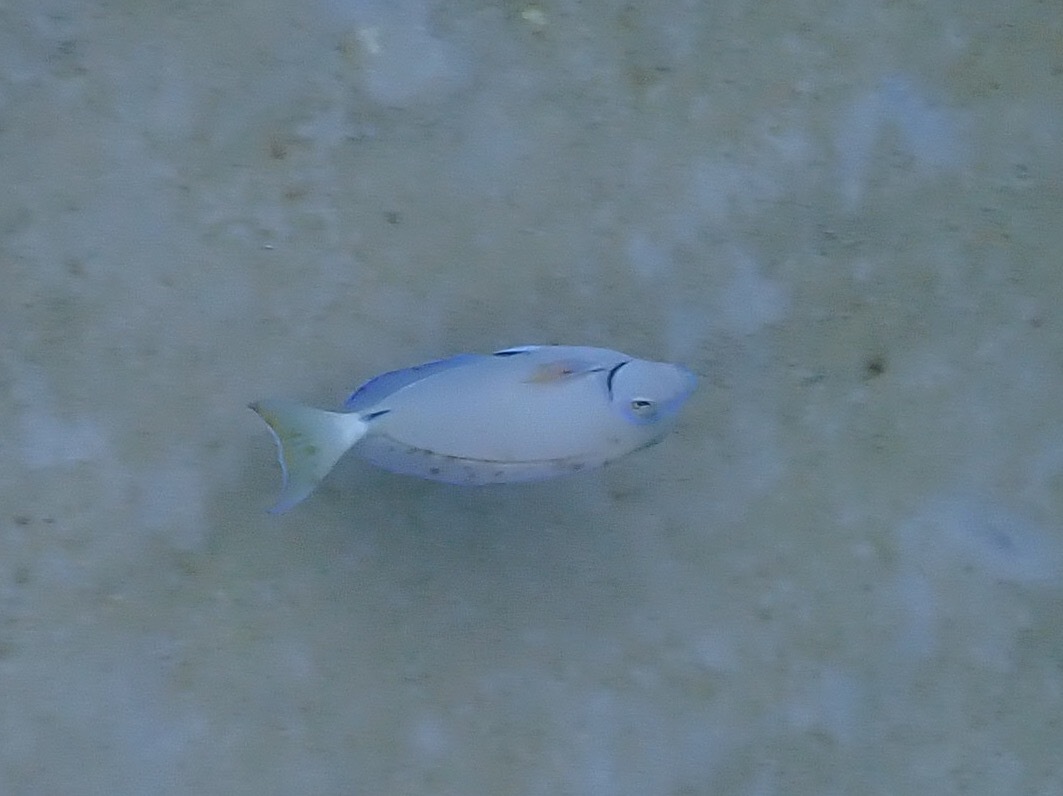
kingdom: Animalia
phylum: Chordata
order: Perciformes
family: Acanthuridae
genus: Acanthurus
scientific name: Acanthurus bahianus
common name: Ocean surgeon
